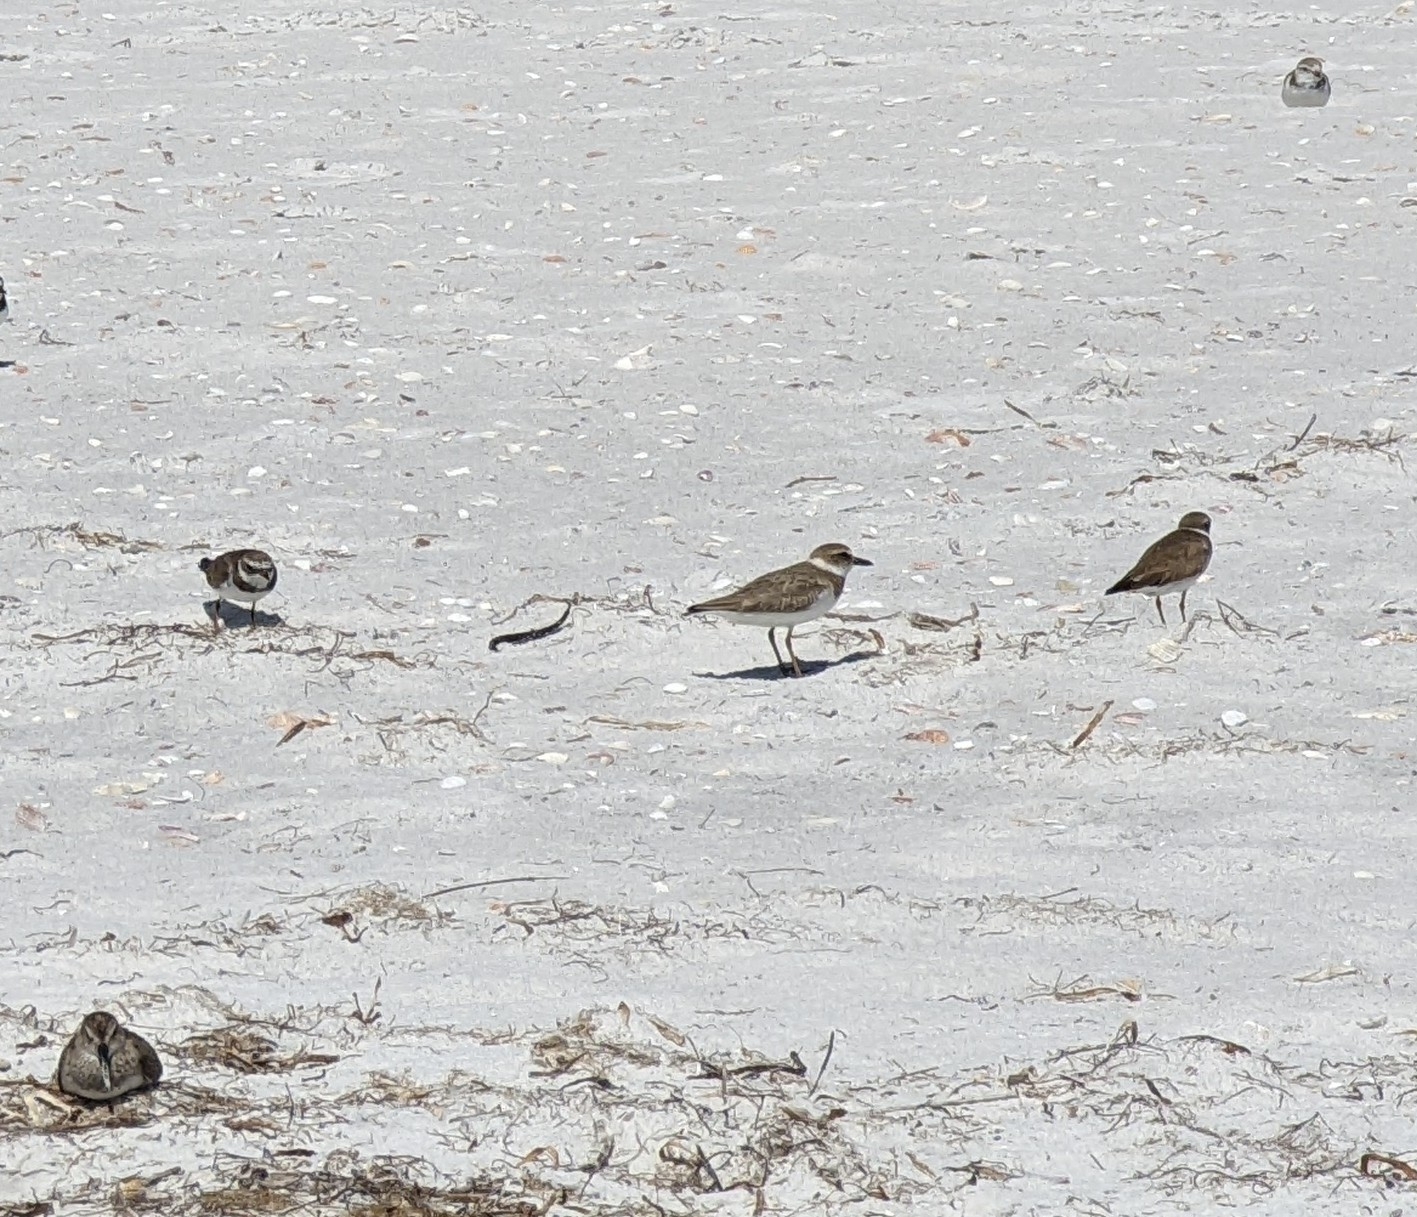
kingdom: Animalia
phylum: Chordata
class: Aves
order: Charadriiformes
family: Charadriidae
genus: Anarhynchus
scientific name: Anarhynchus
